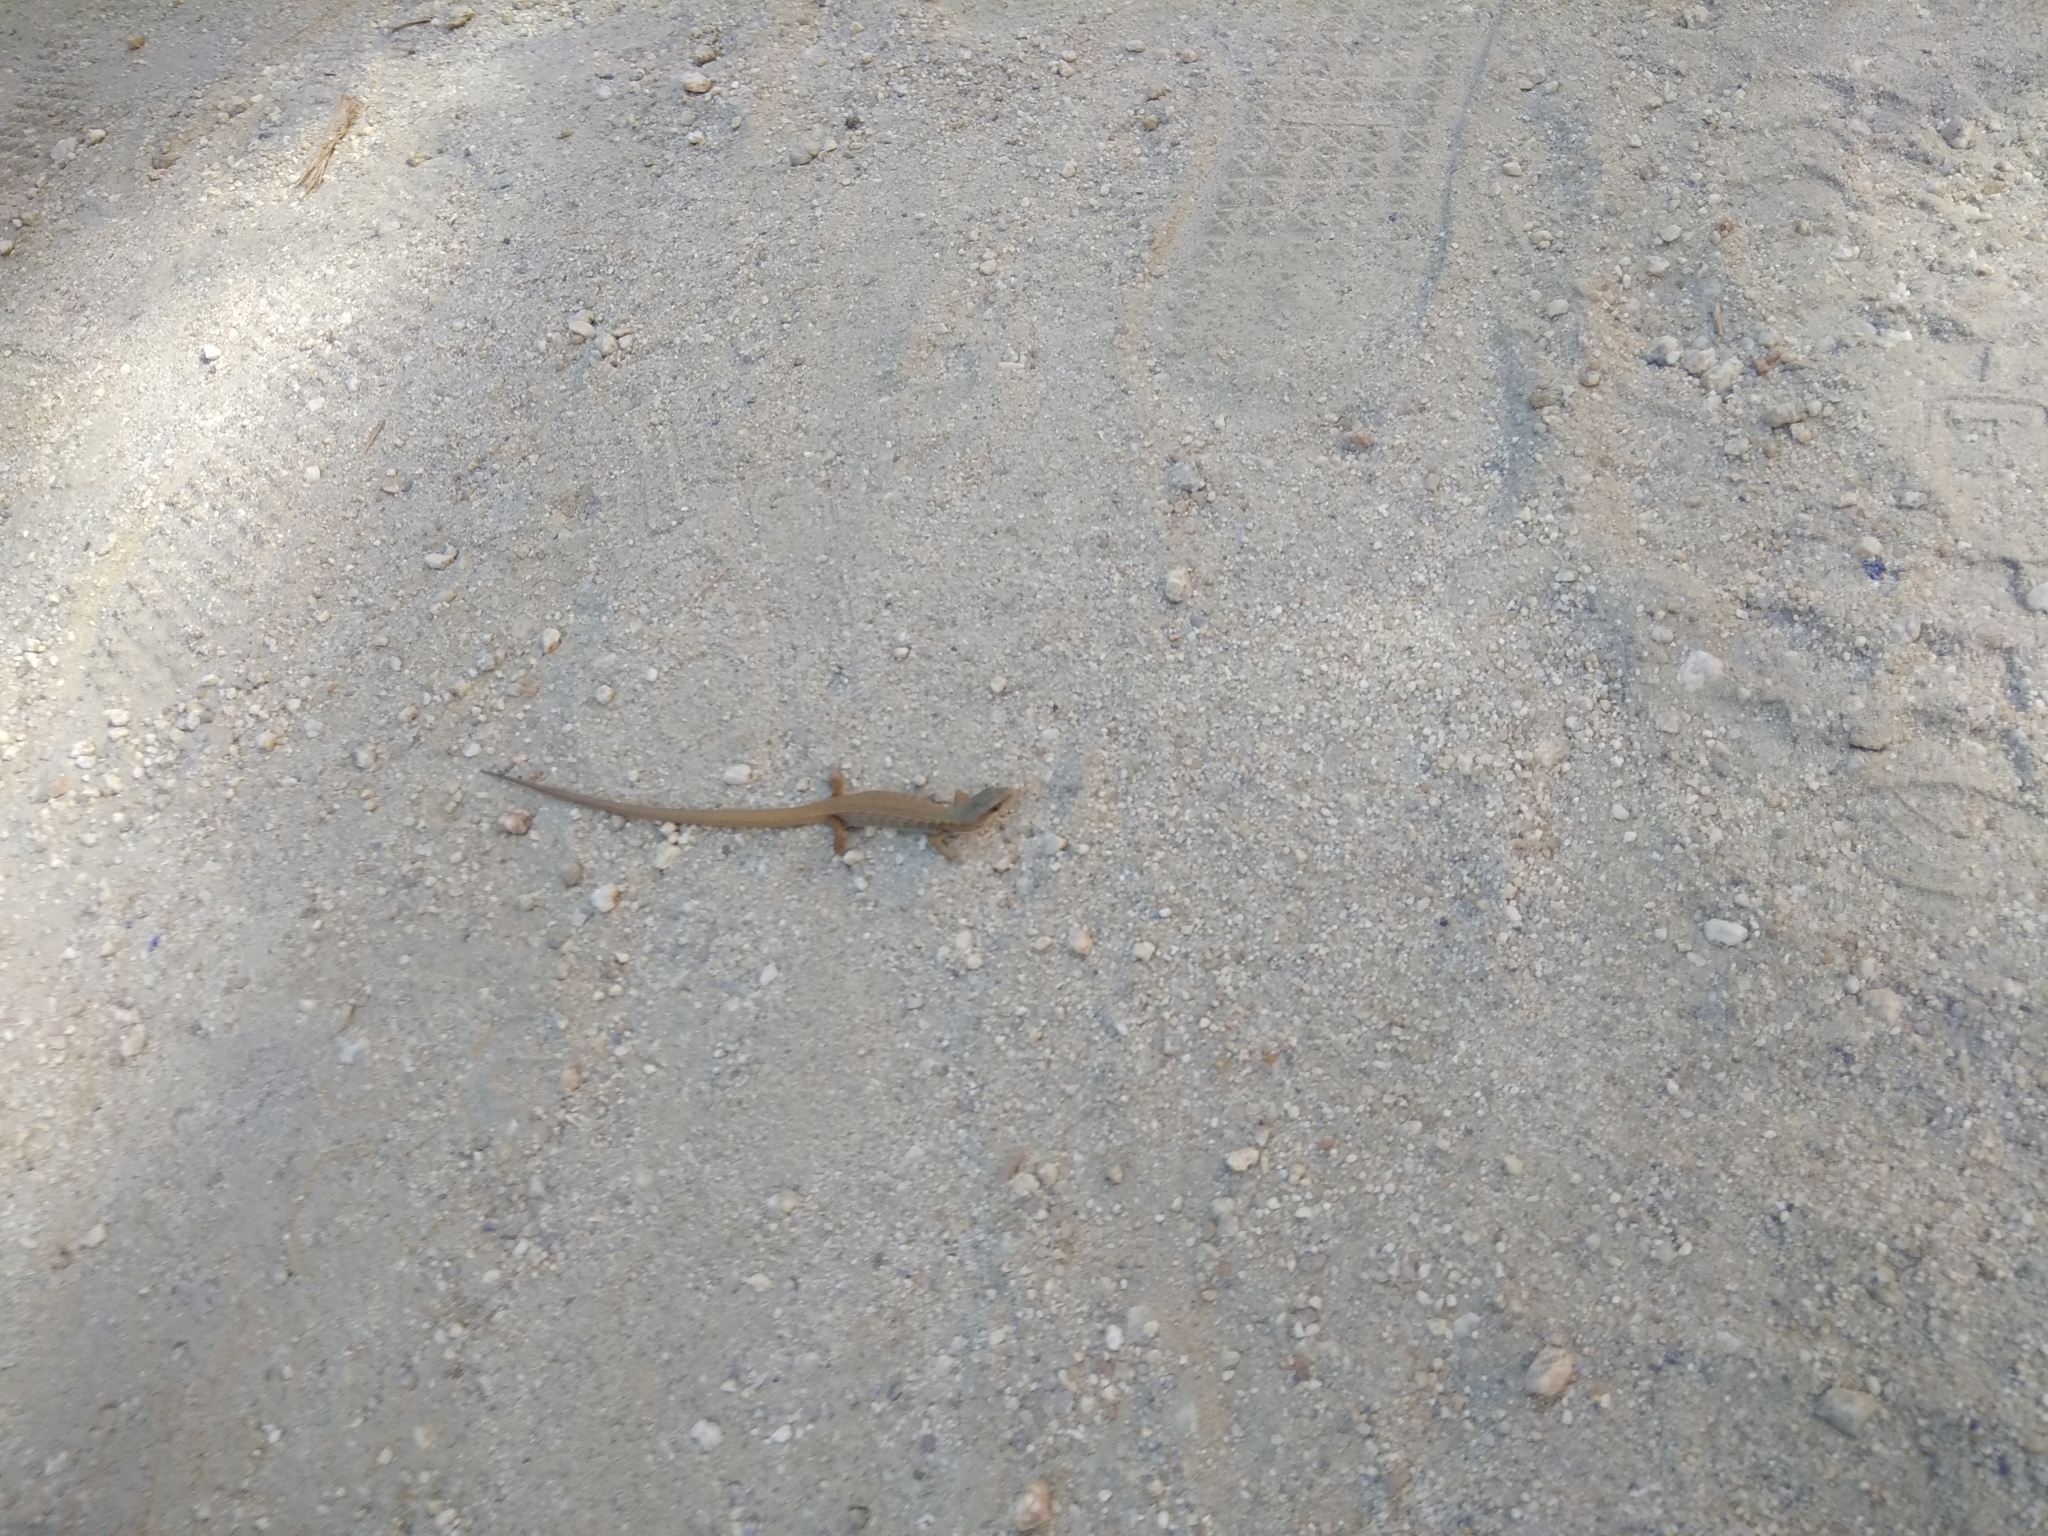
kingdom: Animalia
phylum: Chordata
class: Squamata
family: Anguidae
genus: Elgaria
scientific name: Elgaria multicarinata
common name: Southern alligator lizard
